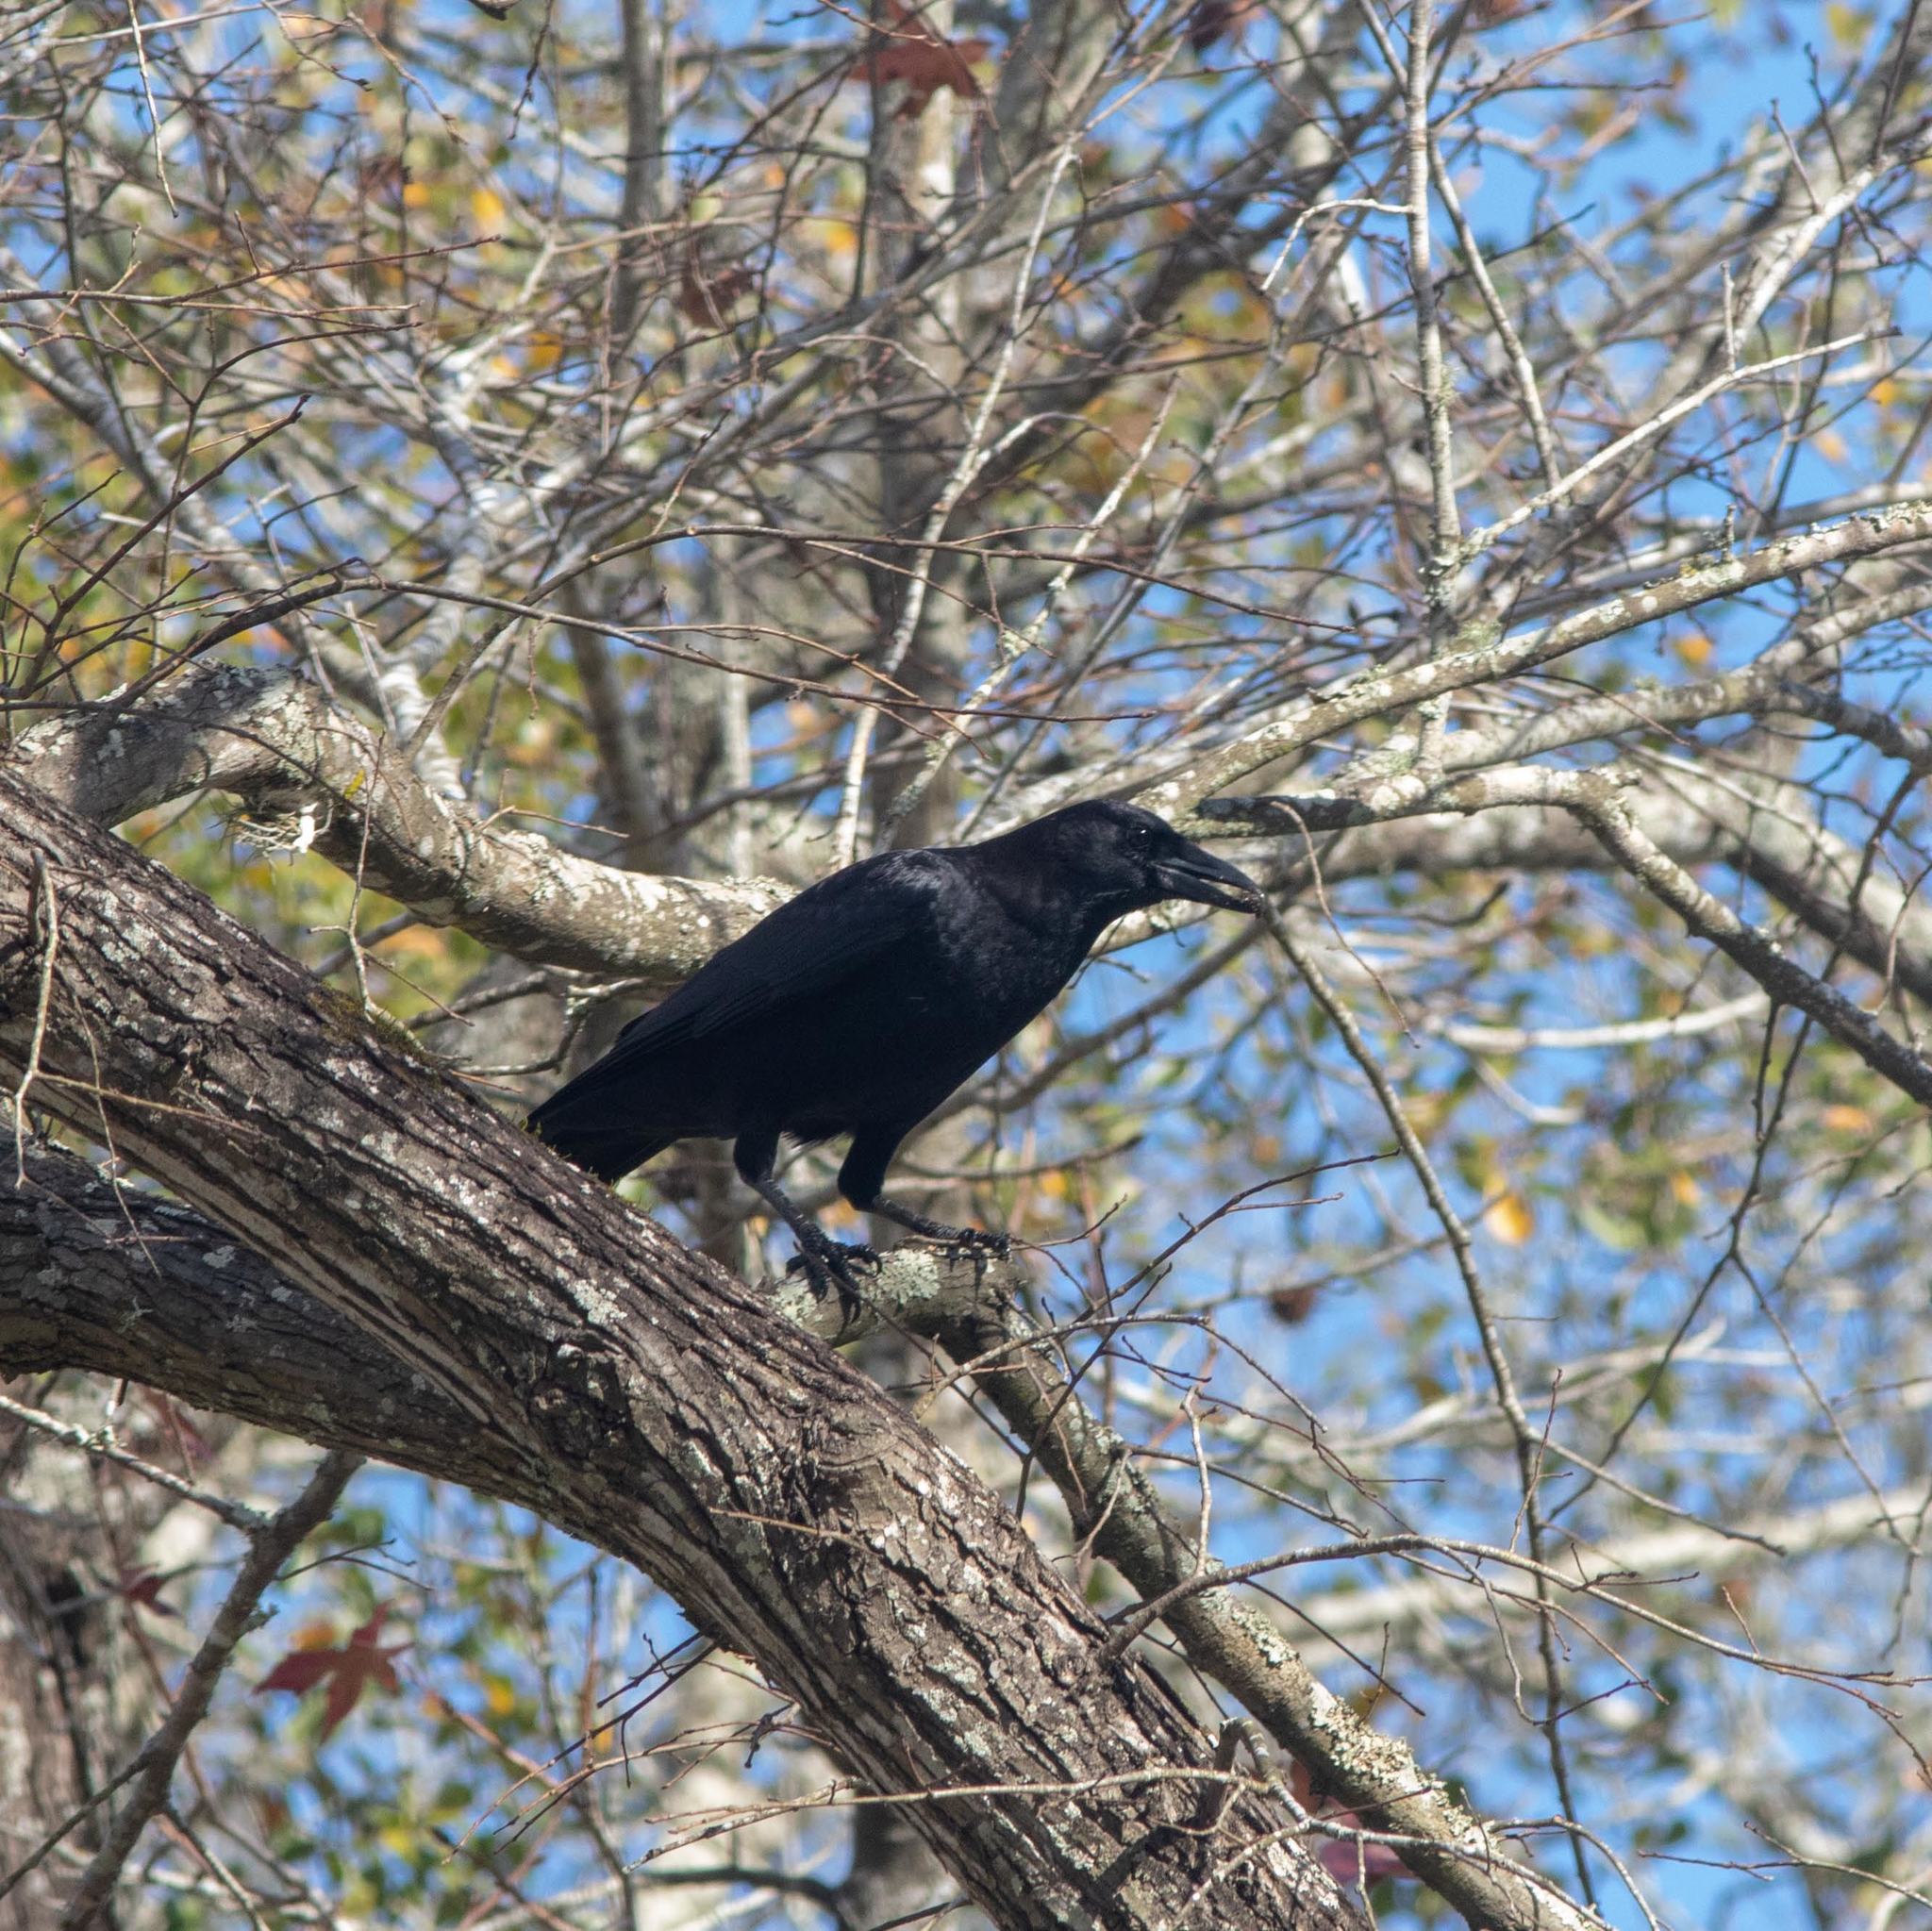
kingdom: Animalia
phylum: Chordata
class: Aves
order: Passeriformes
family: Corvidae
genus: Corvus
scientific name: Corvus brachyrhynchos
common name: American crow
